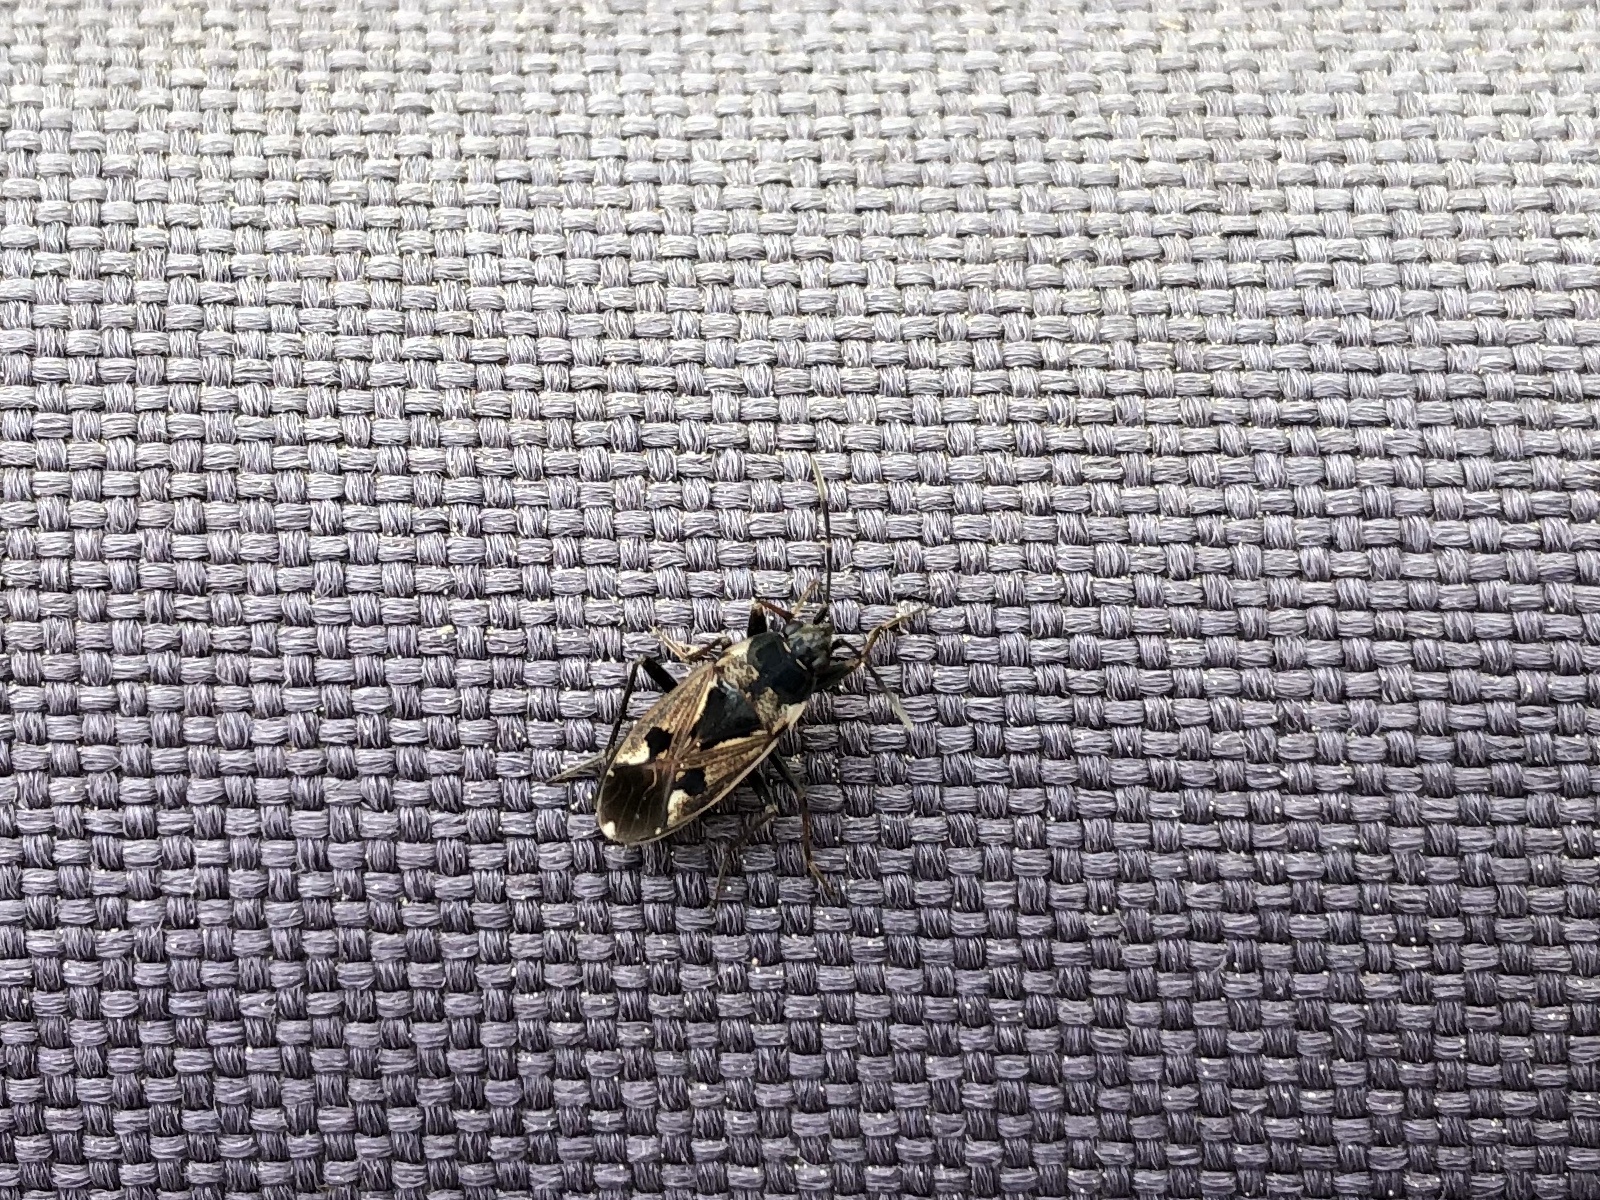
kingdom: Animalia
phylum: Arthropoda
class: Insecta
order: Hemiptera
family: Rhyparochromidae
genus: Rhyparochromus
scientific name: Rhyparochromus vulgaris
